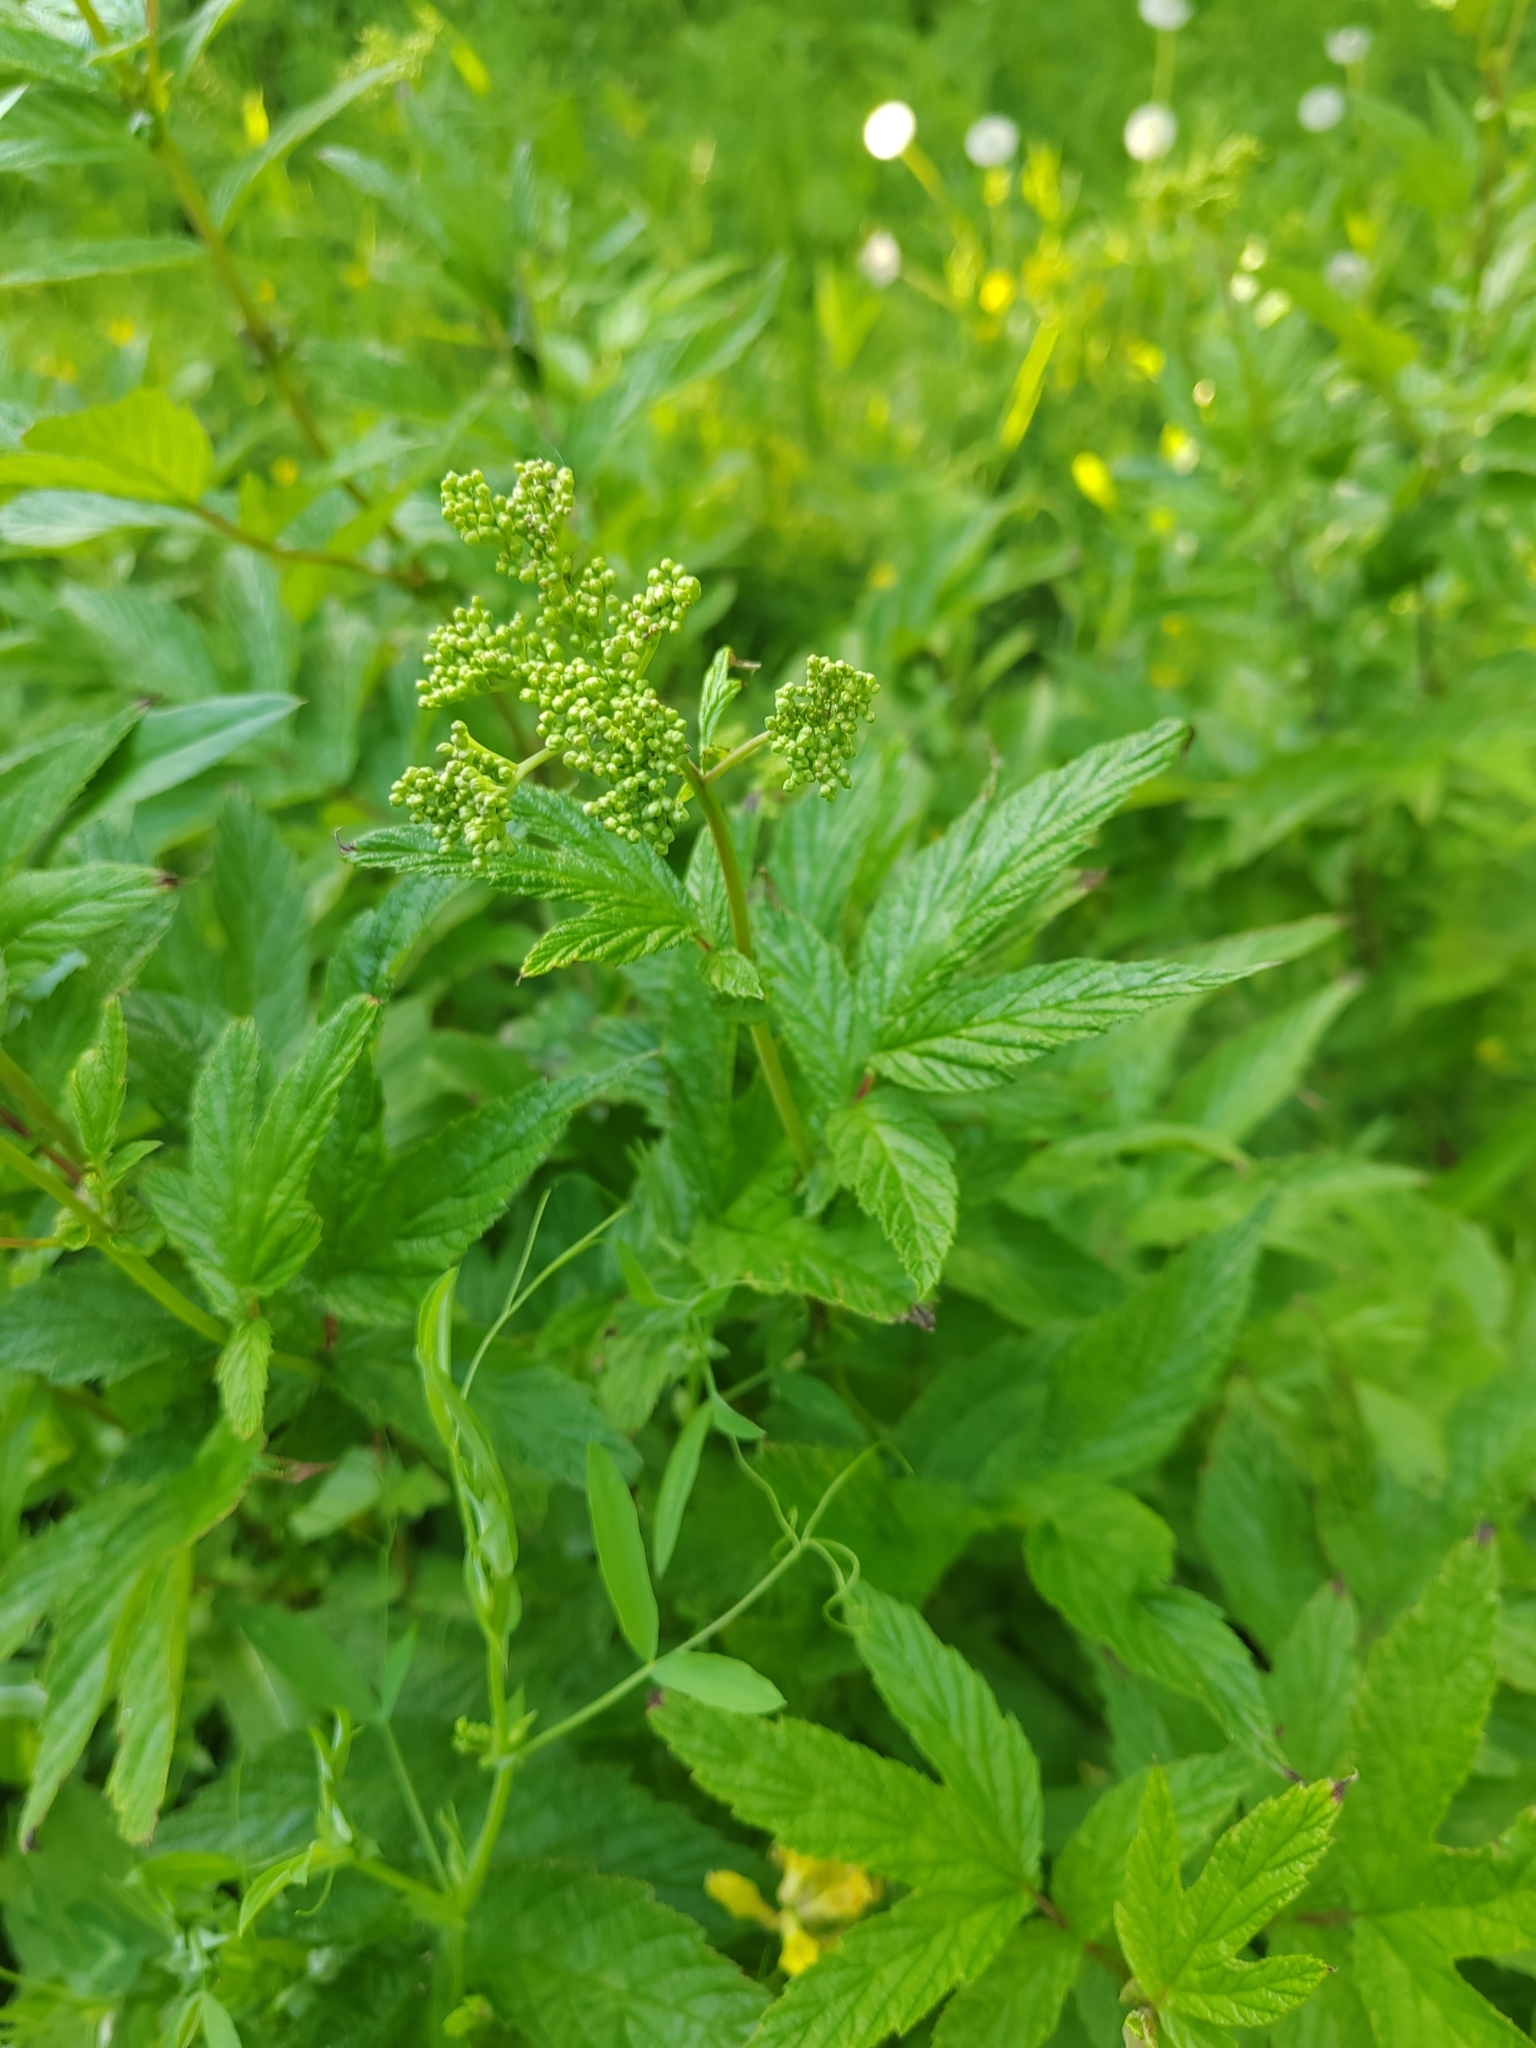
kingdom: Plantae
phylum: Tracheophyta
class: Magnoliopsida
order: Rosales
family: Rosaceae
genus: Filipendula
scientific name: Filipendula ulmaria
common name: Meadowsweet
